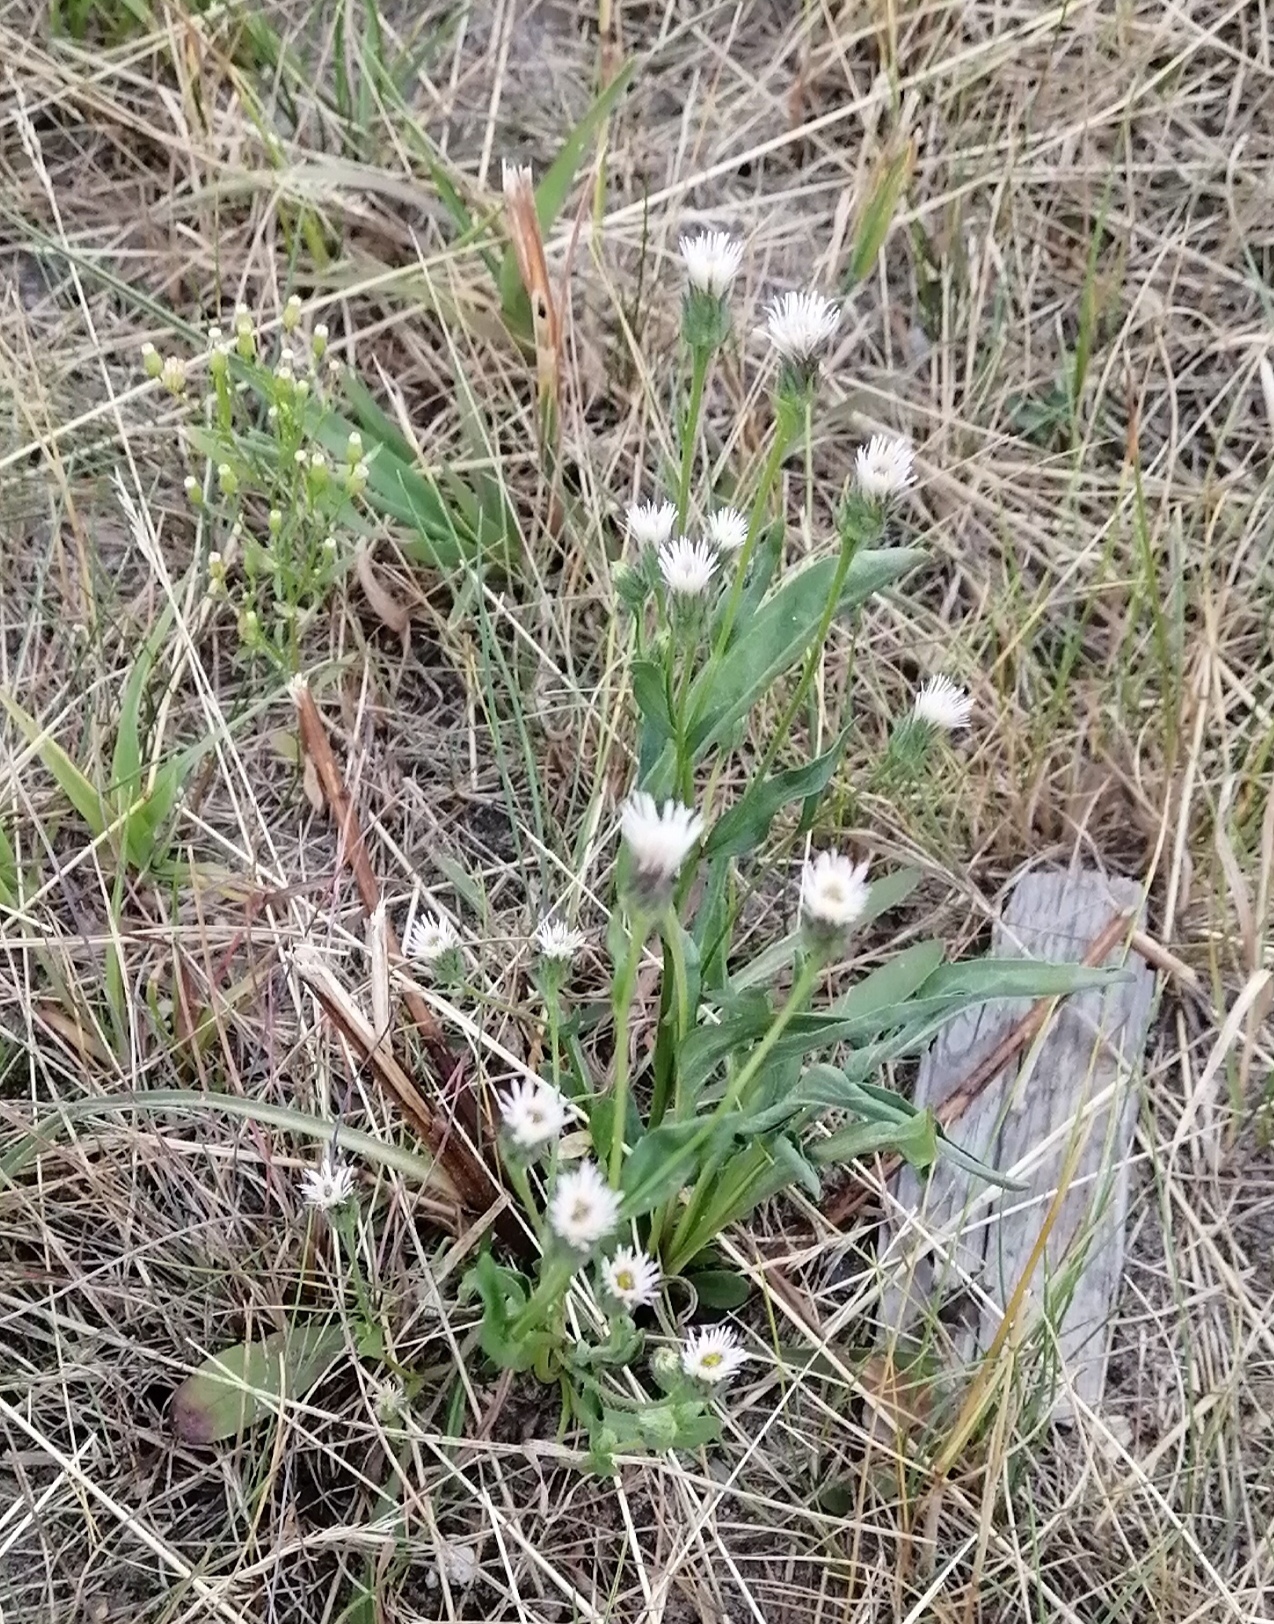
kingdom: Plantae
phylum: Tracheophyta
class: Magnoliopsida
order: Asterales
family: Asteraceae
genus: Erigeron
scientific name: Erigeron acris
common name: Blue fleabane
